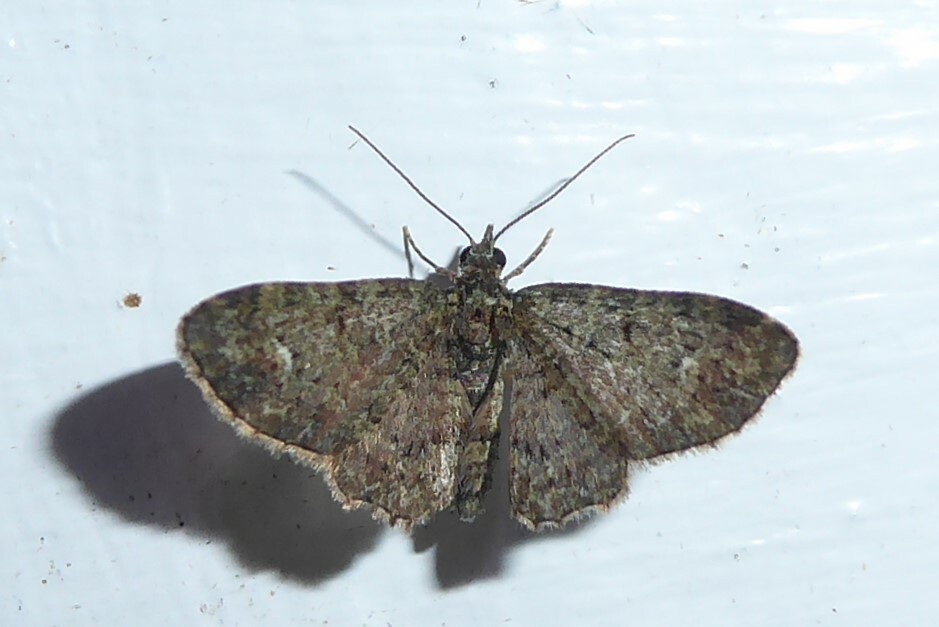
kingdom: Animalia
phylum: Arthropoda
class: Insecta
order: Lepidoptera
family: Geometridae
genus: Pasiphilodes
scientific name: Pasiphilodes testulata
